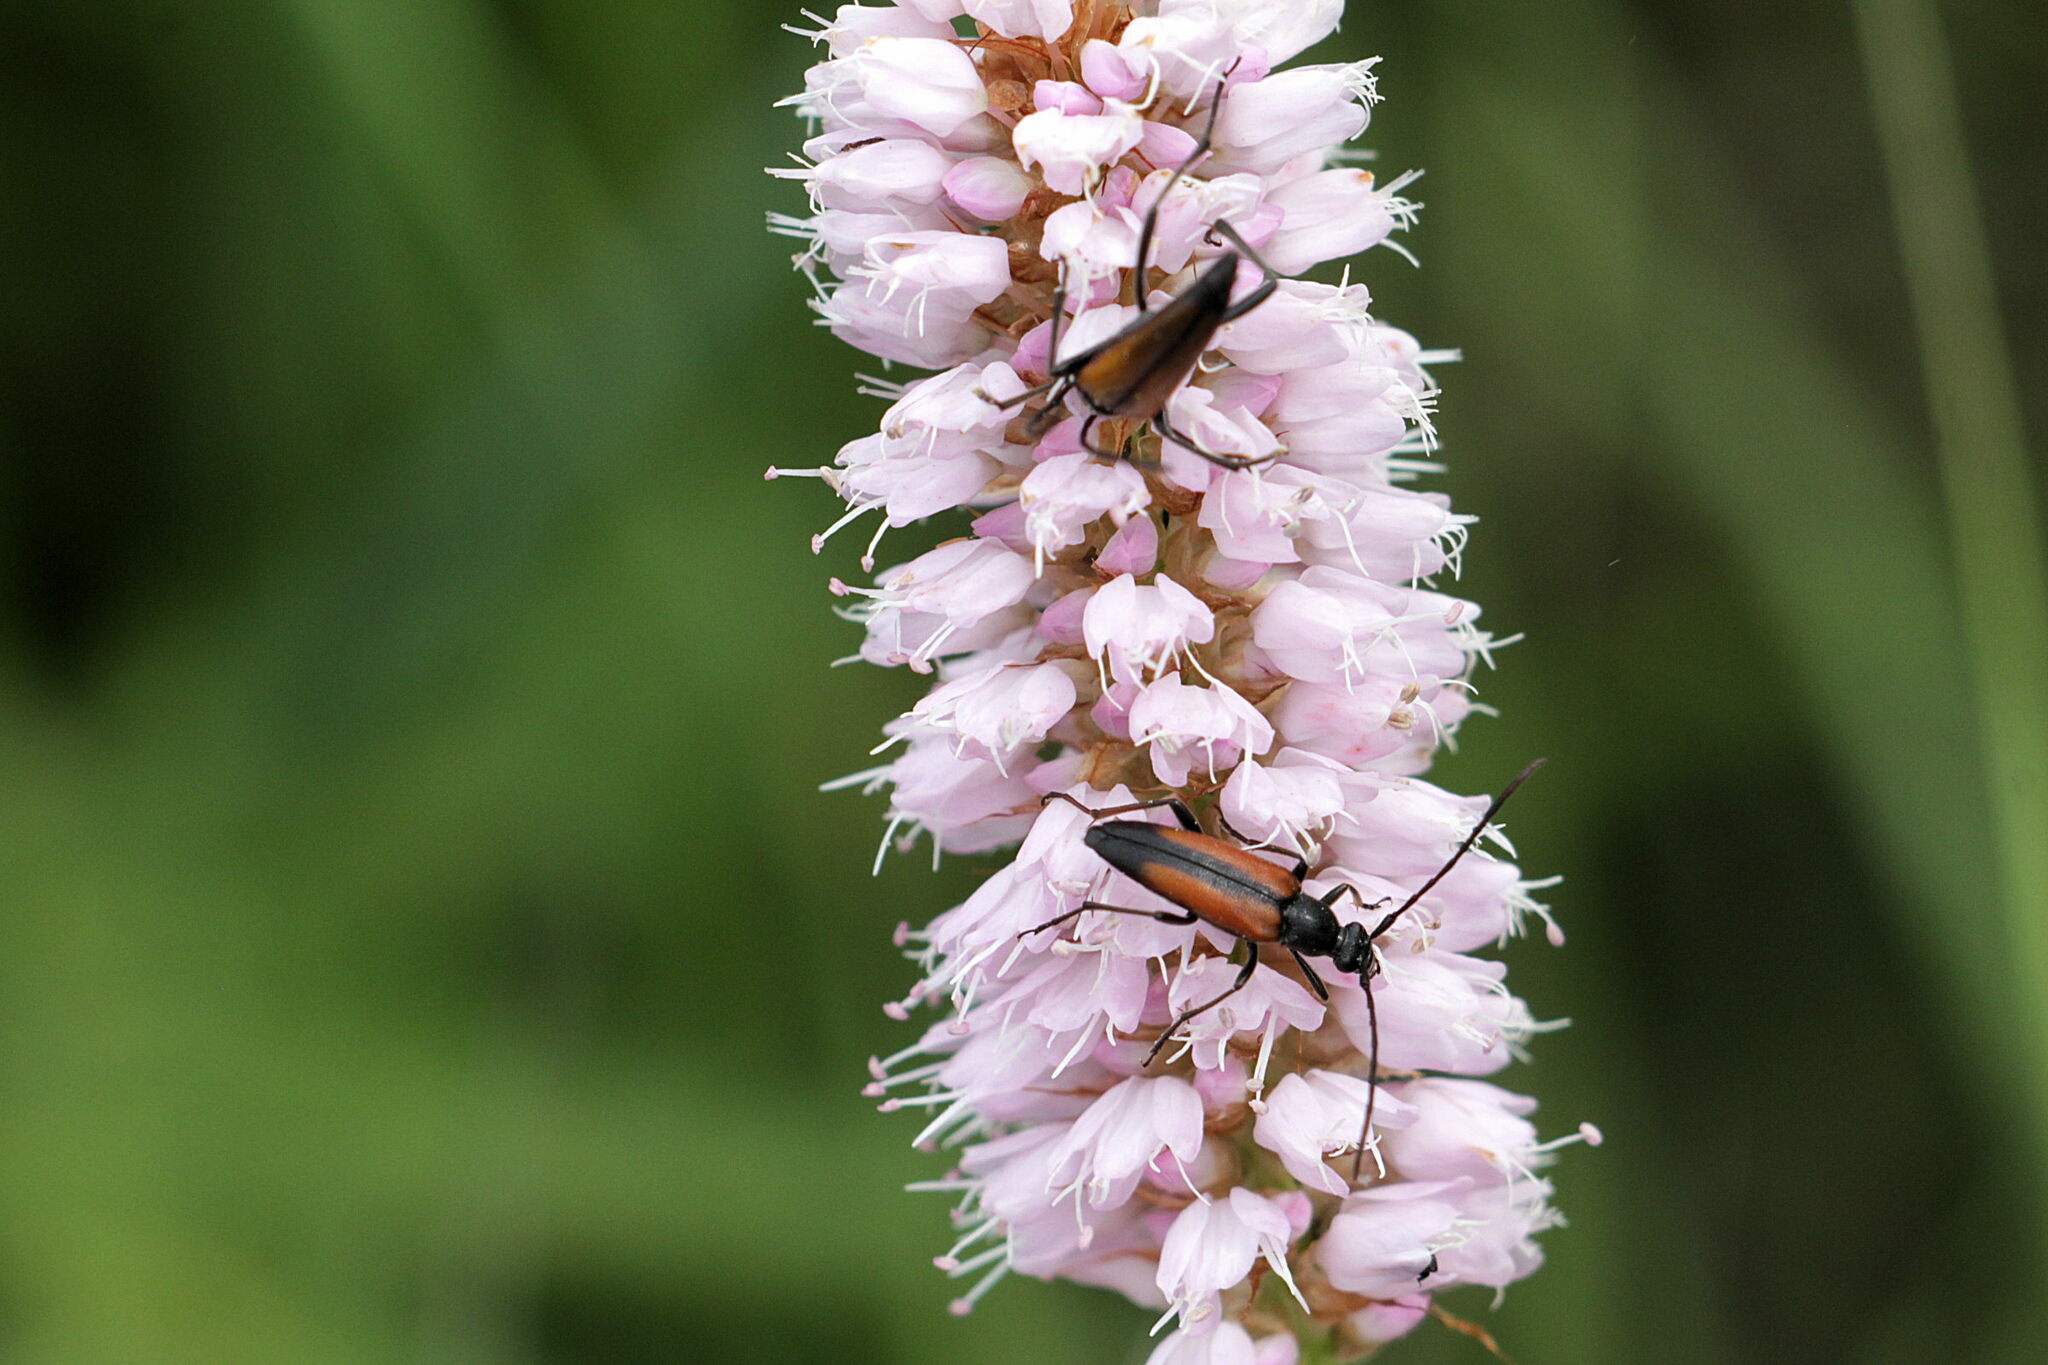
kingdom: Animalia
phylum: Arthropoda
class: Insecta
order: Coleoptera
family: Cerambycidae
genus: Stenurella
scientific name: Stenurella melanura
